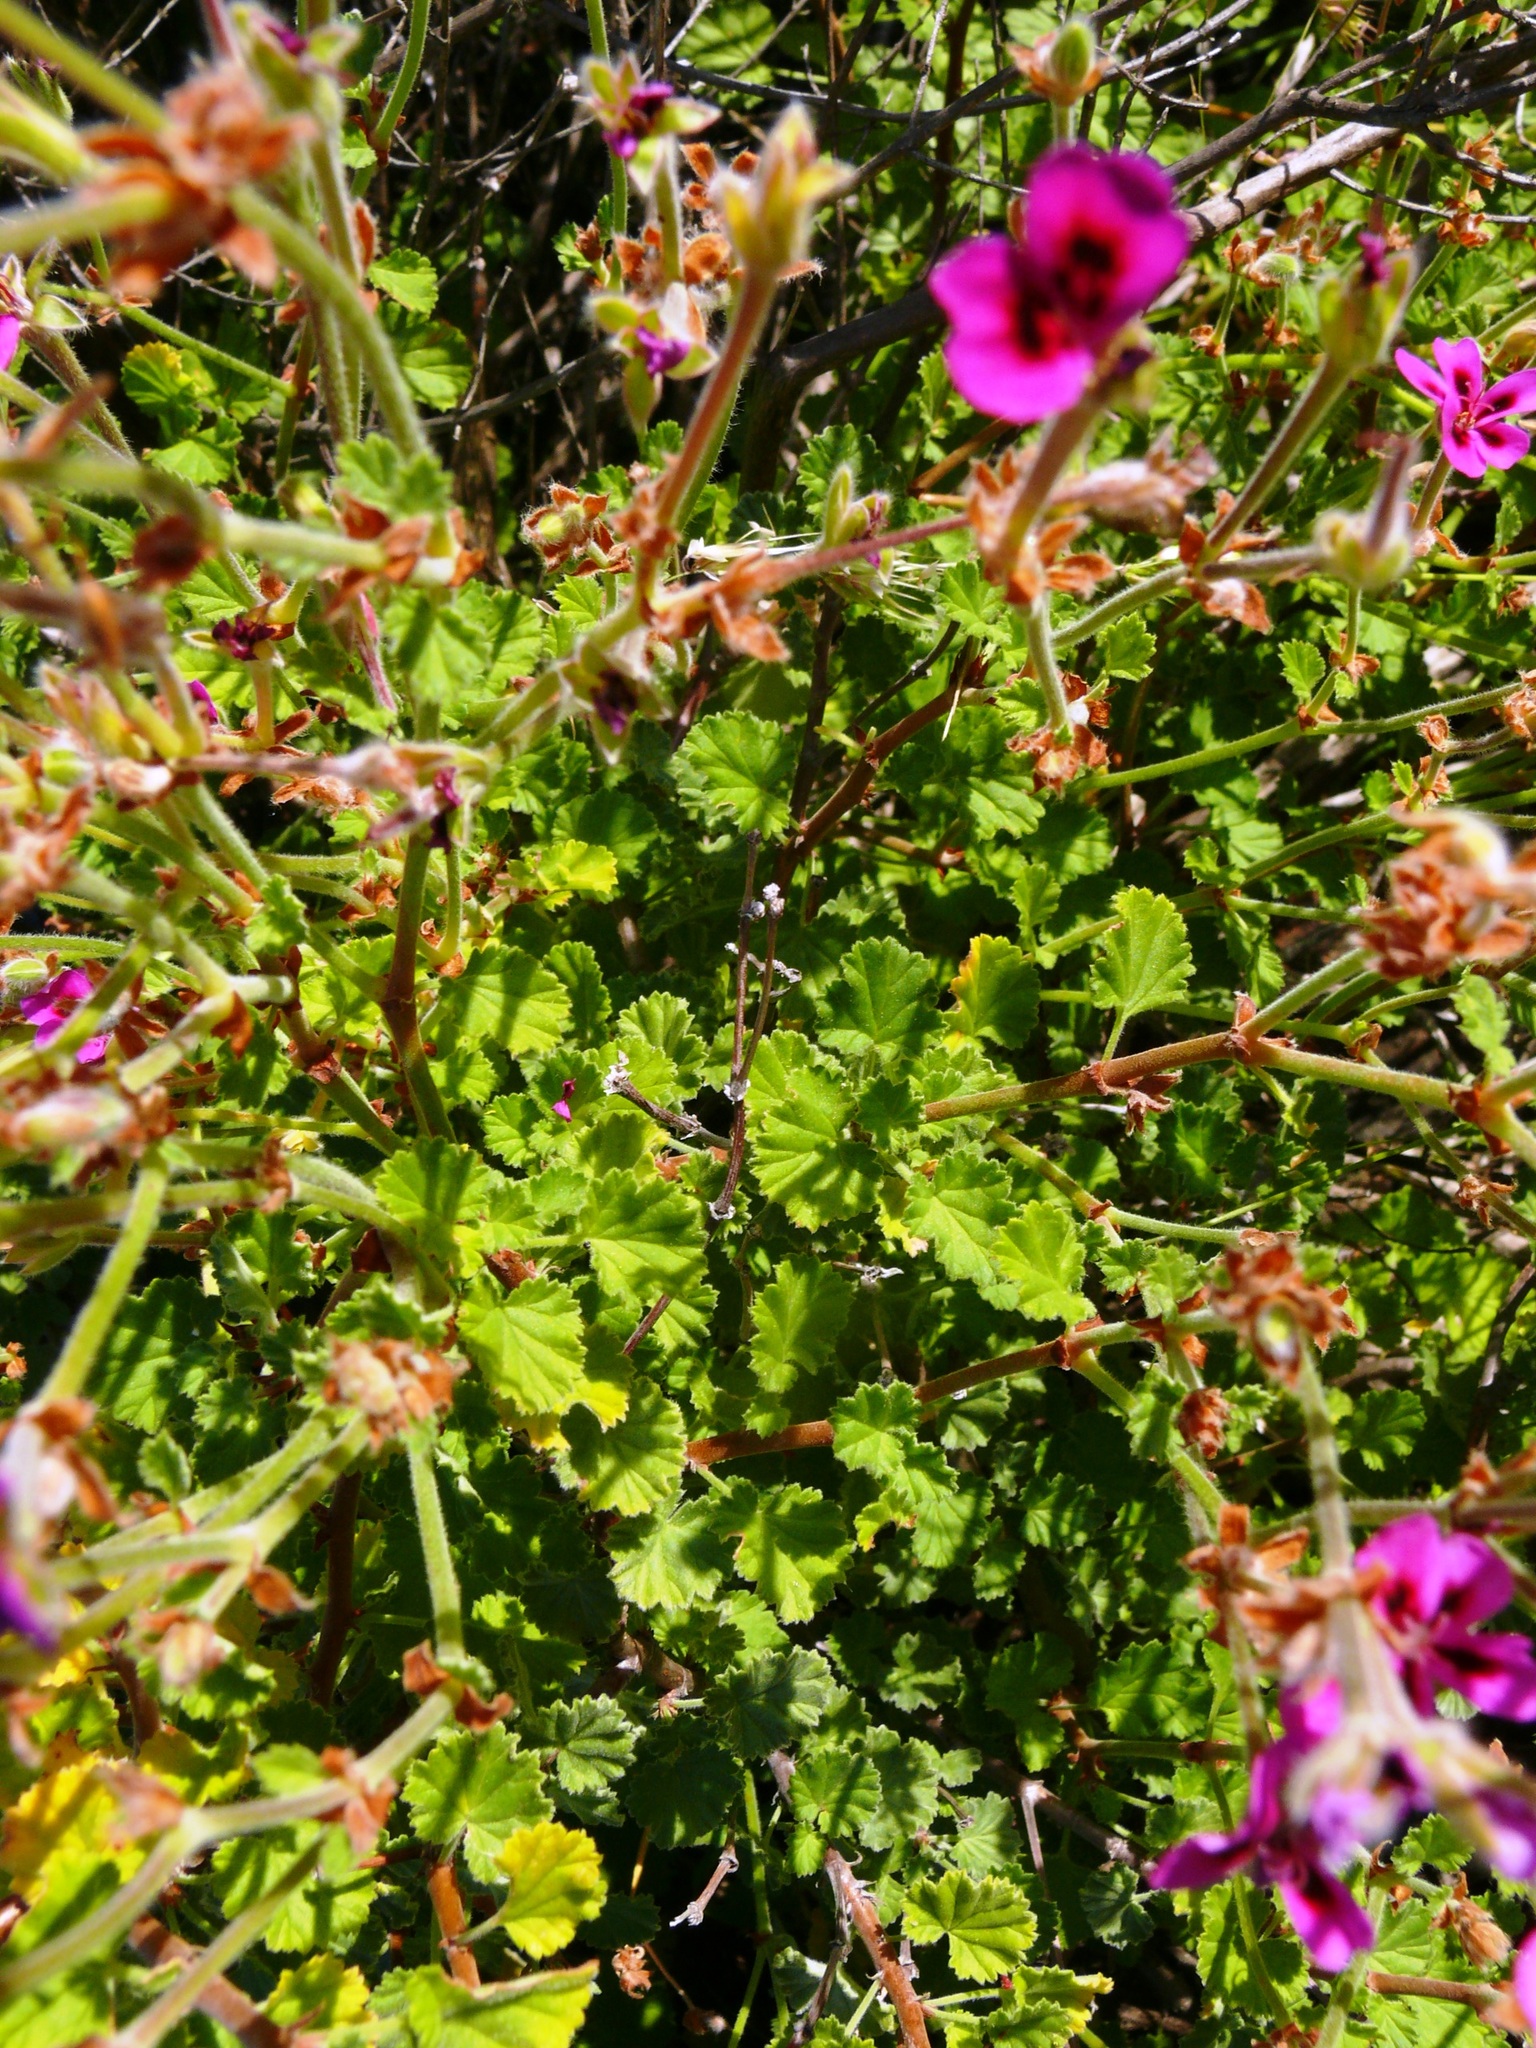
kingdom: Plantae
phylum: Tracheophyta
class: Magnoliopsida
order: Geraniales
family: Geraniaceae
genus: Pelargonium
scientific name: Pelargonium magenteum
